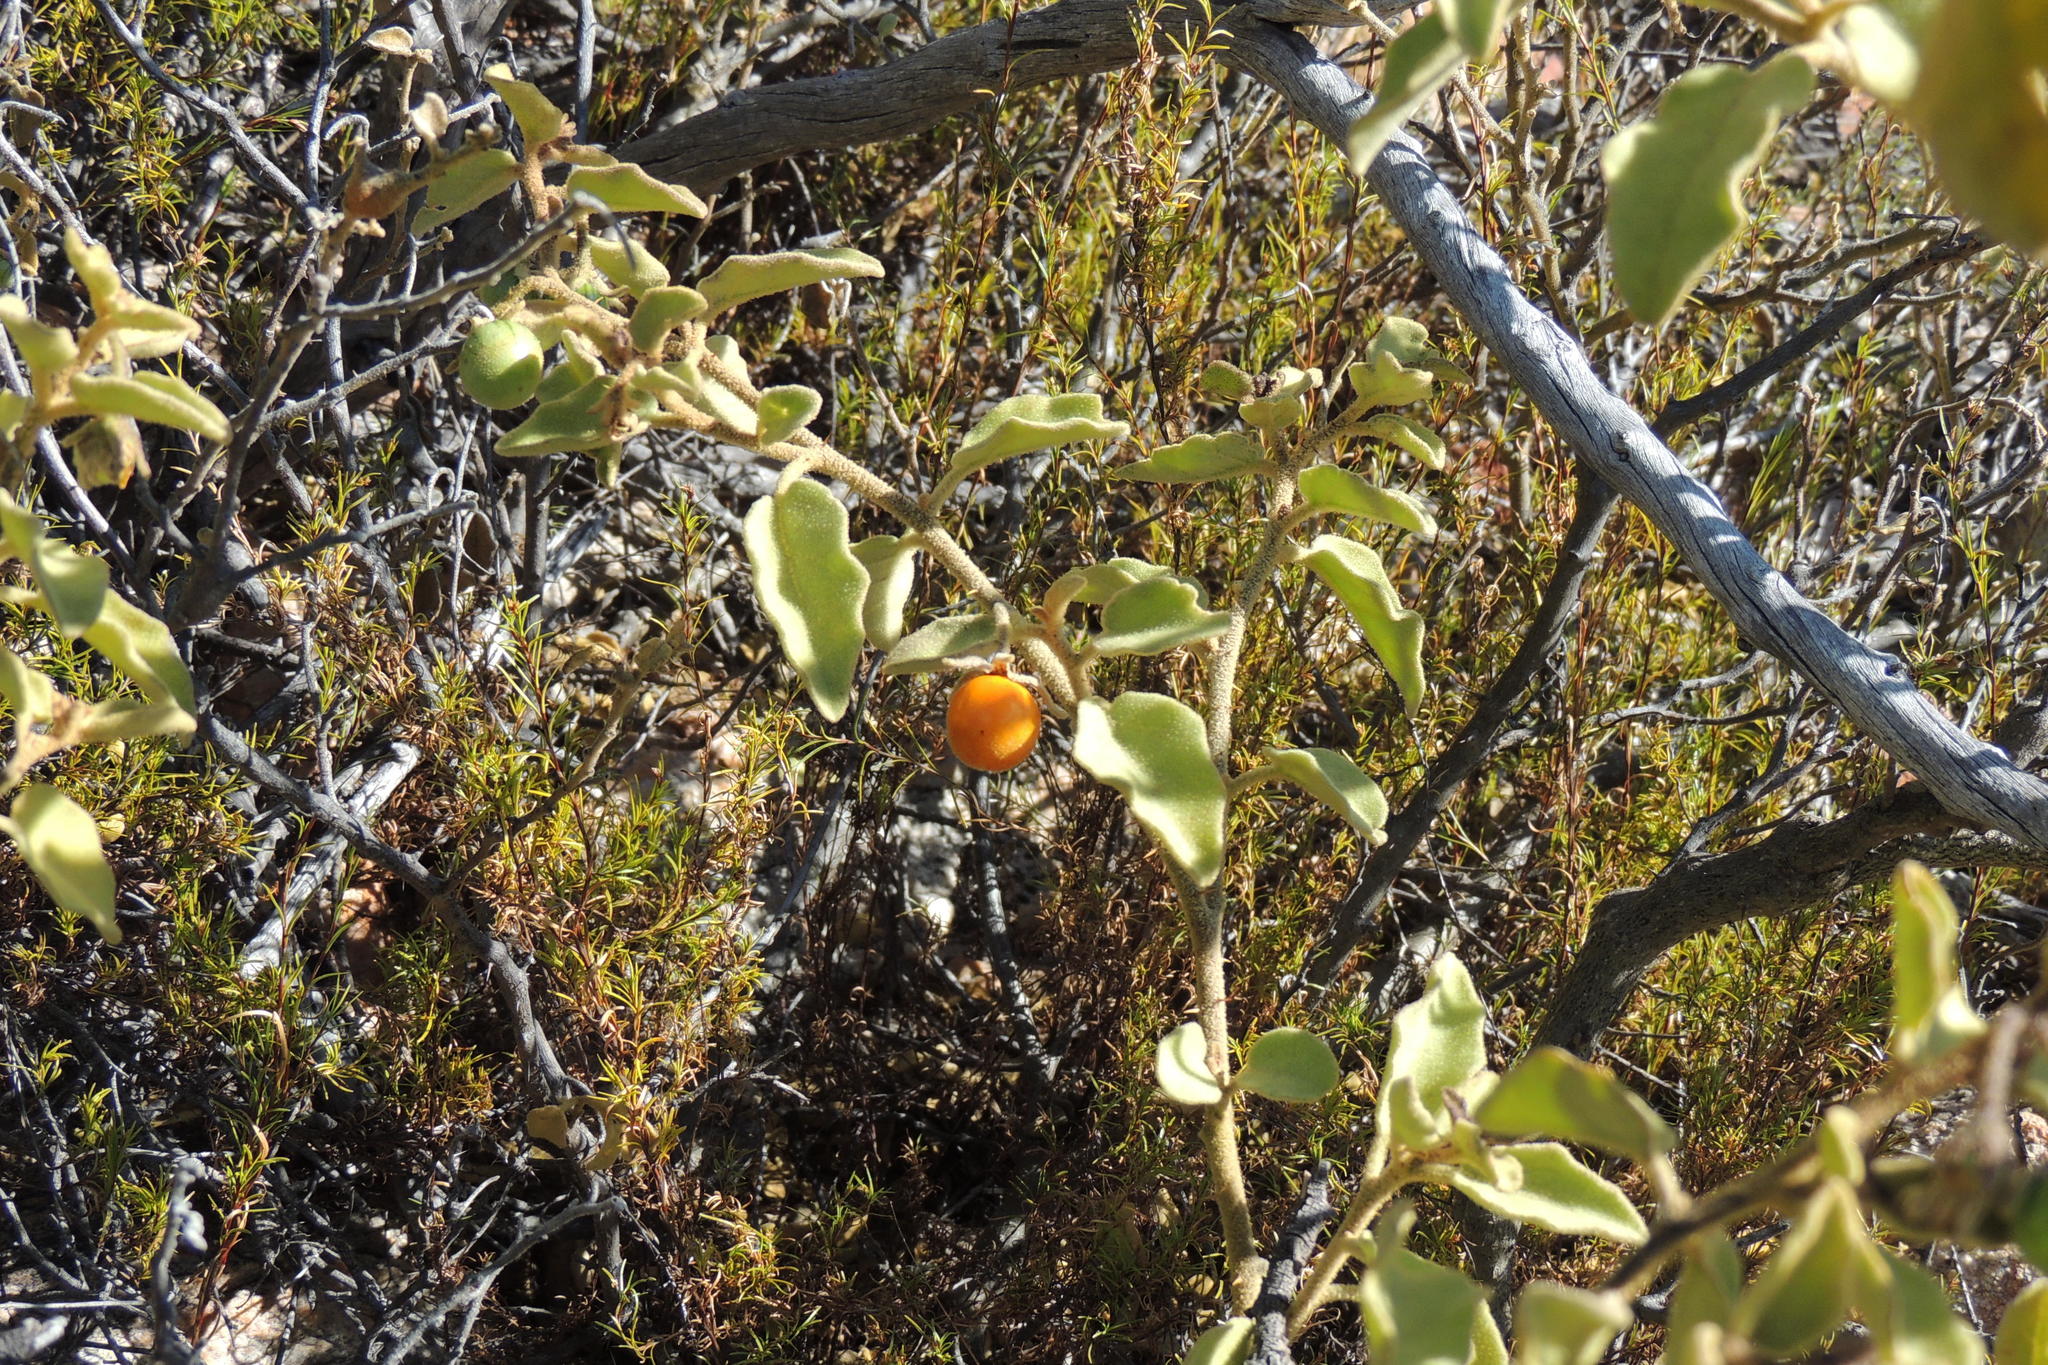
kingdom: Plantae
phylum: Tracheophyta
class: Magnoliopsida
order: Solanales
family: Solanaceae
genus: Solanum
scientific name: Solanum tomentosum
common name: Wild aubergine
